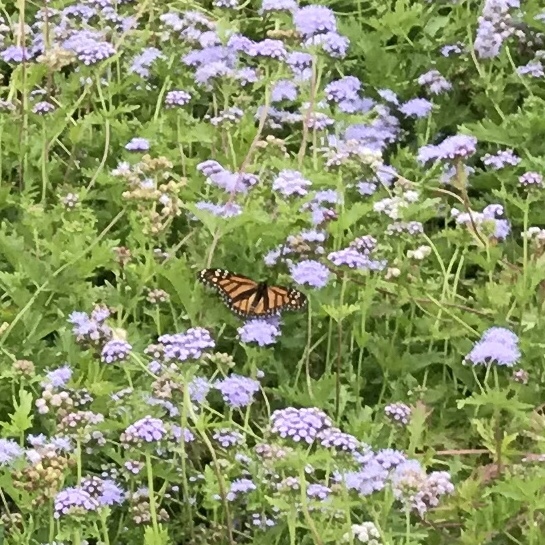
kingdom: Animalia
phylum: Arthropoda
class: Insecta
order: Lepidoptera
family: Nymphalidae
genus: Danaus
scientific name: Danaus plexippus
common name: Monarch
